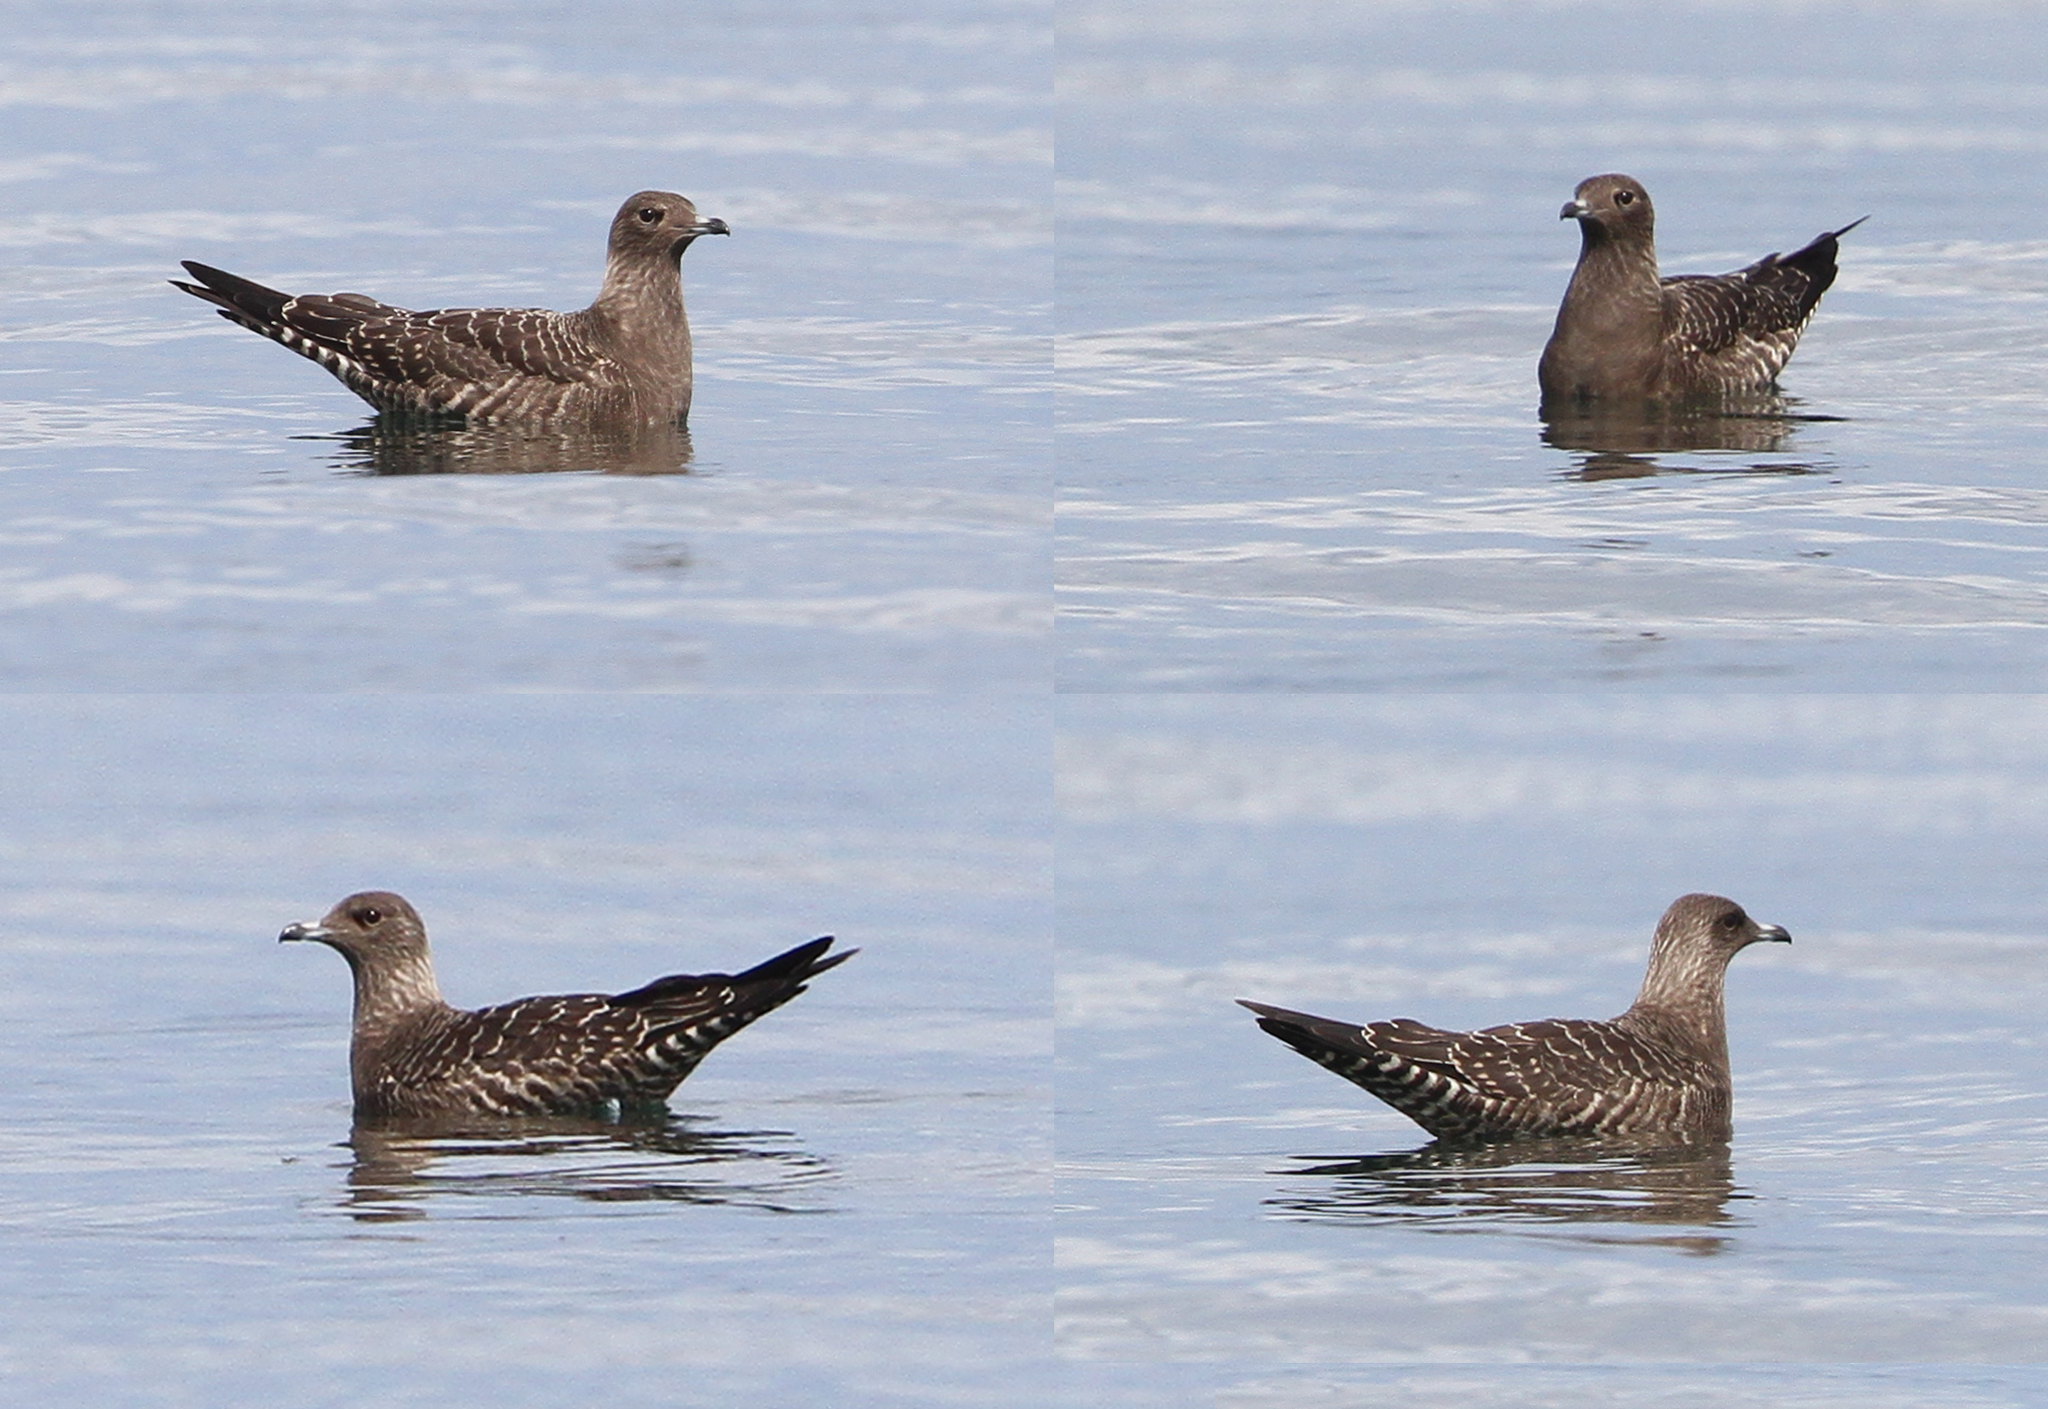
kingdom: Animalia
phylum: Chordata
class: Aves
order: Charadriiformes
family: Stercorariidae
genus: Stercorarius
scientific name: Stercorarius longicaudus
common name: Long-tailed jaeger
